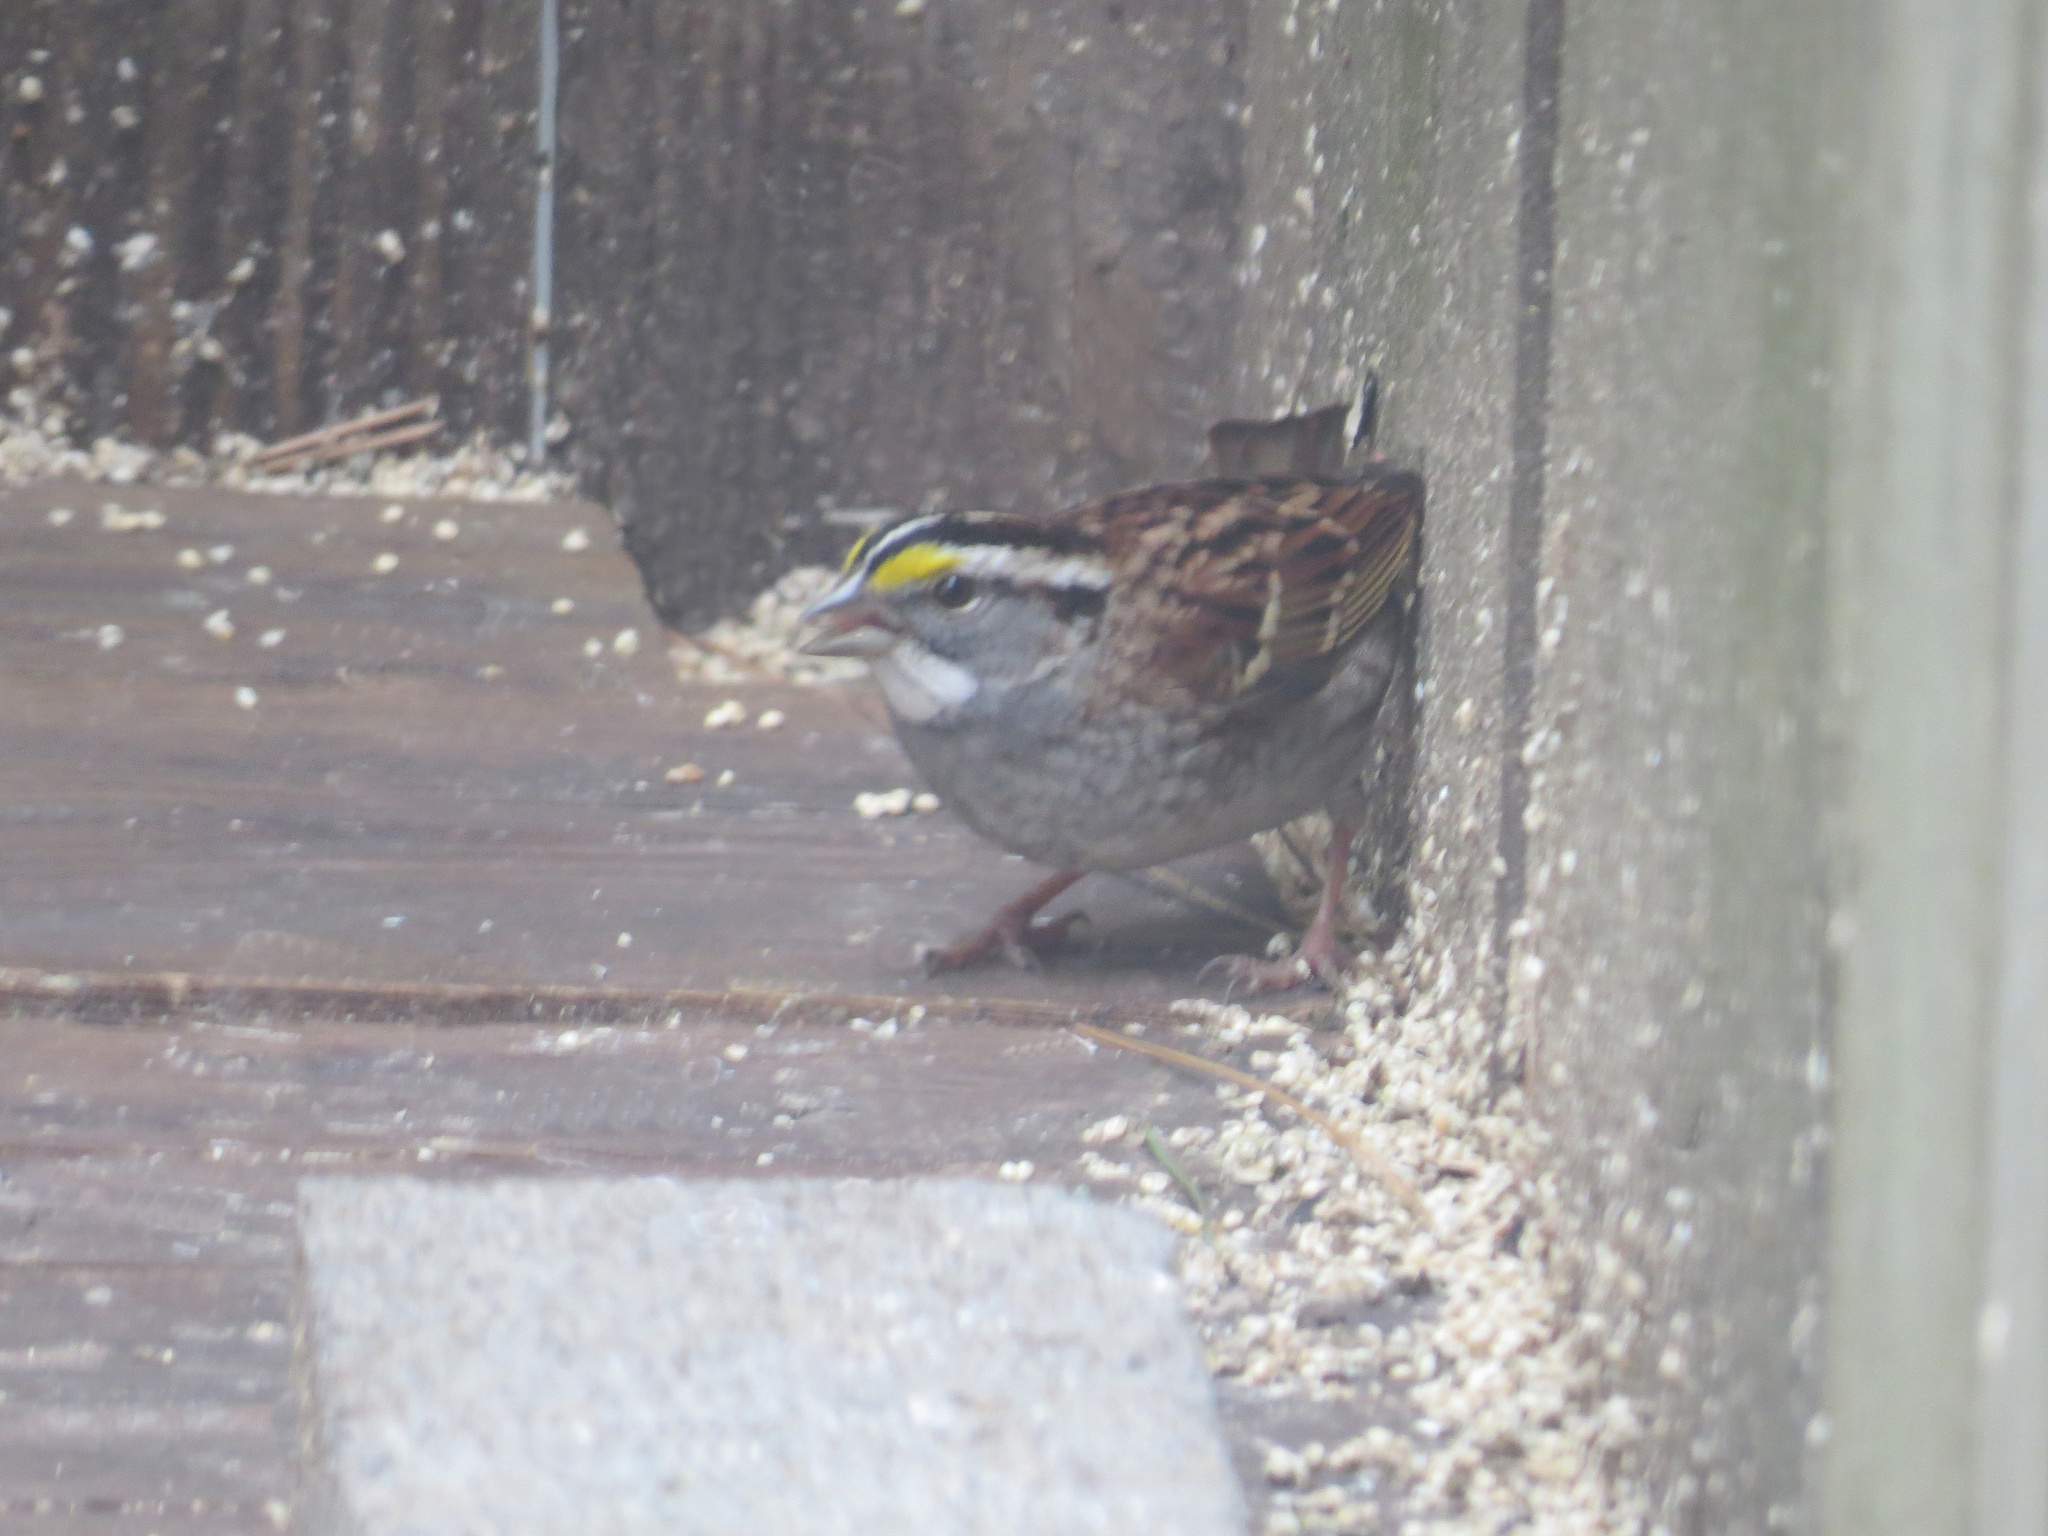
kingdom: Animalia
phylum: Chordata
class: Aves
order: Passeriformes
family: Passerellidae
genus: Zonotrichia
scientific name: Zonotrichia albicollis
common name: White-throated sparrow
